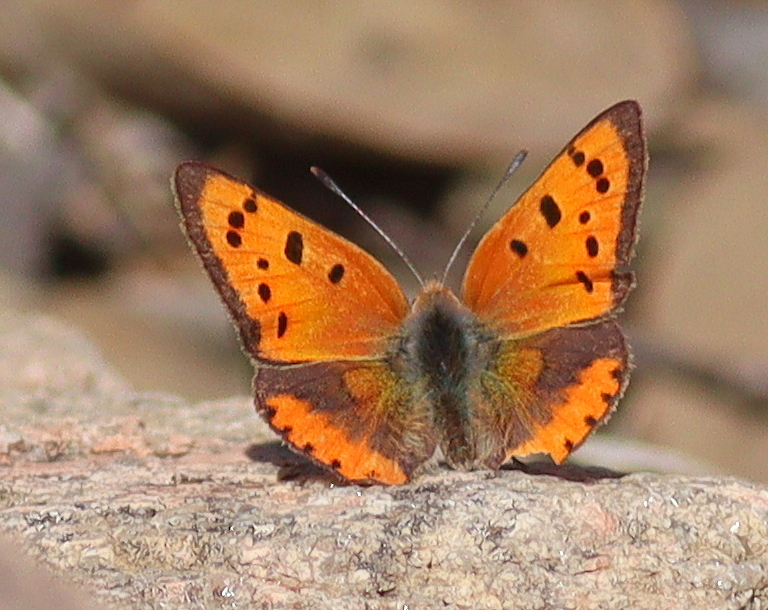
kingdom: Animalia
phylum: Arthropoda
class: Insecta
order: Lepidoptera
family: Lycaenidae
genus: Lycaena
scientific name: Lycaena phlaeas
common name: Small copper
